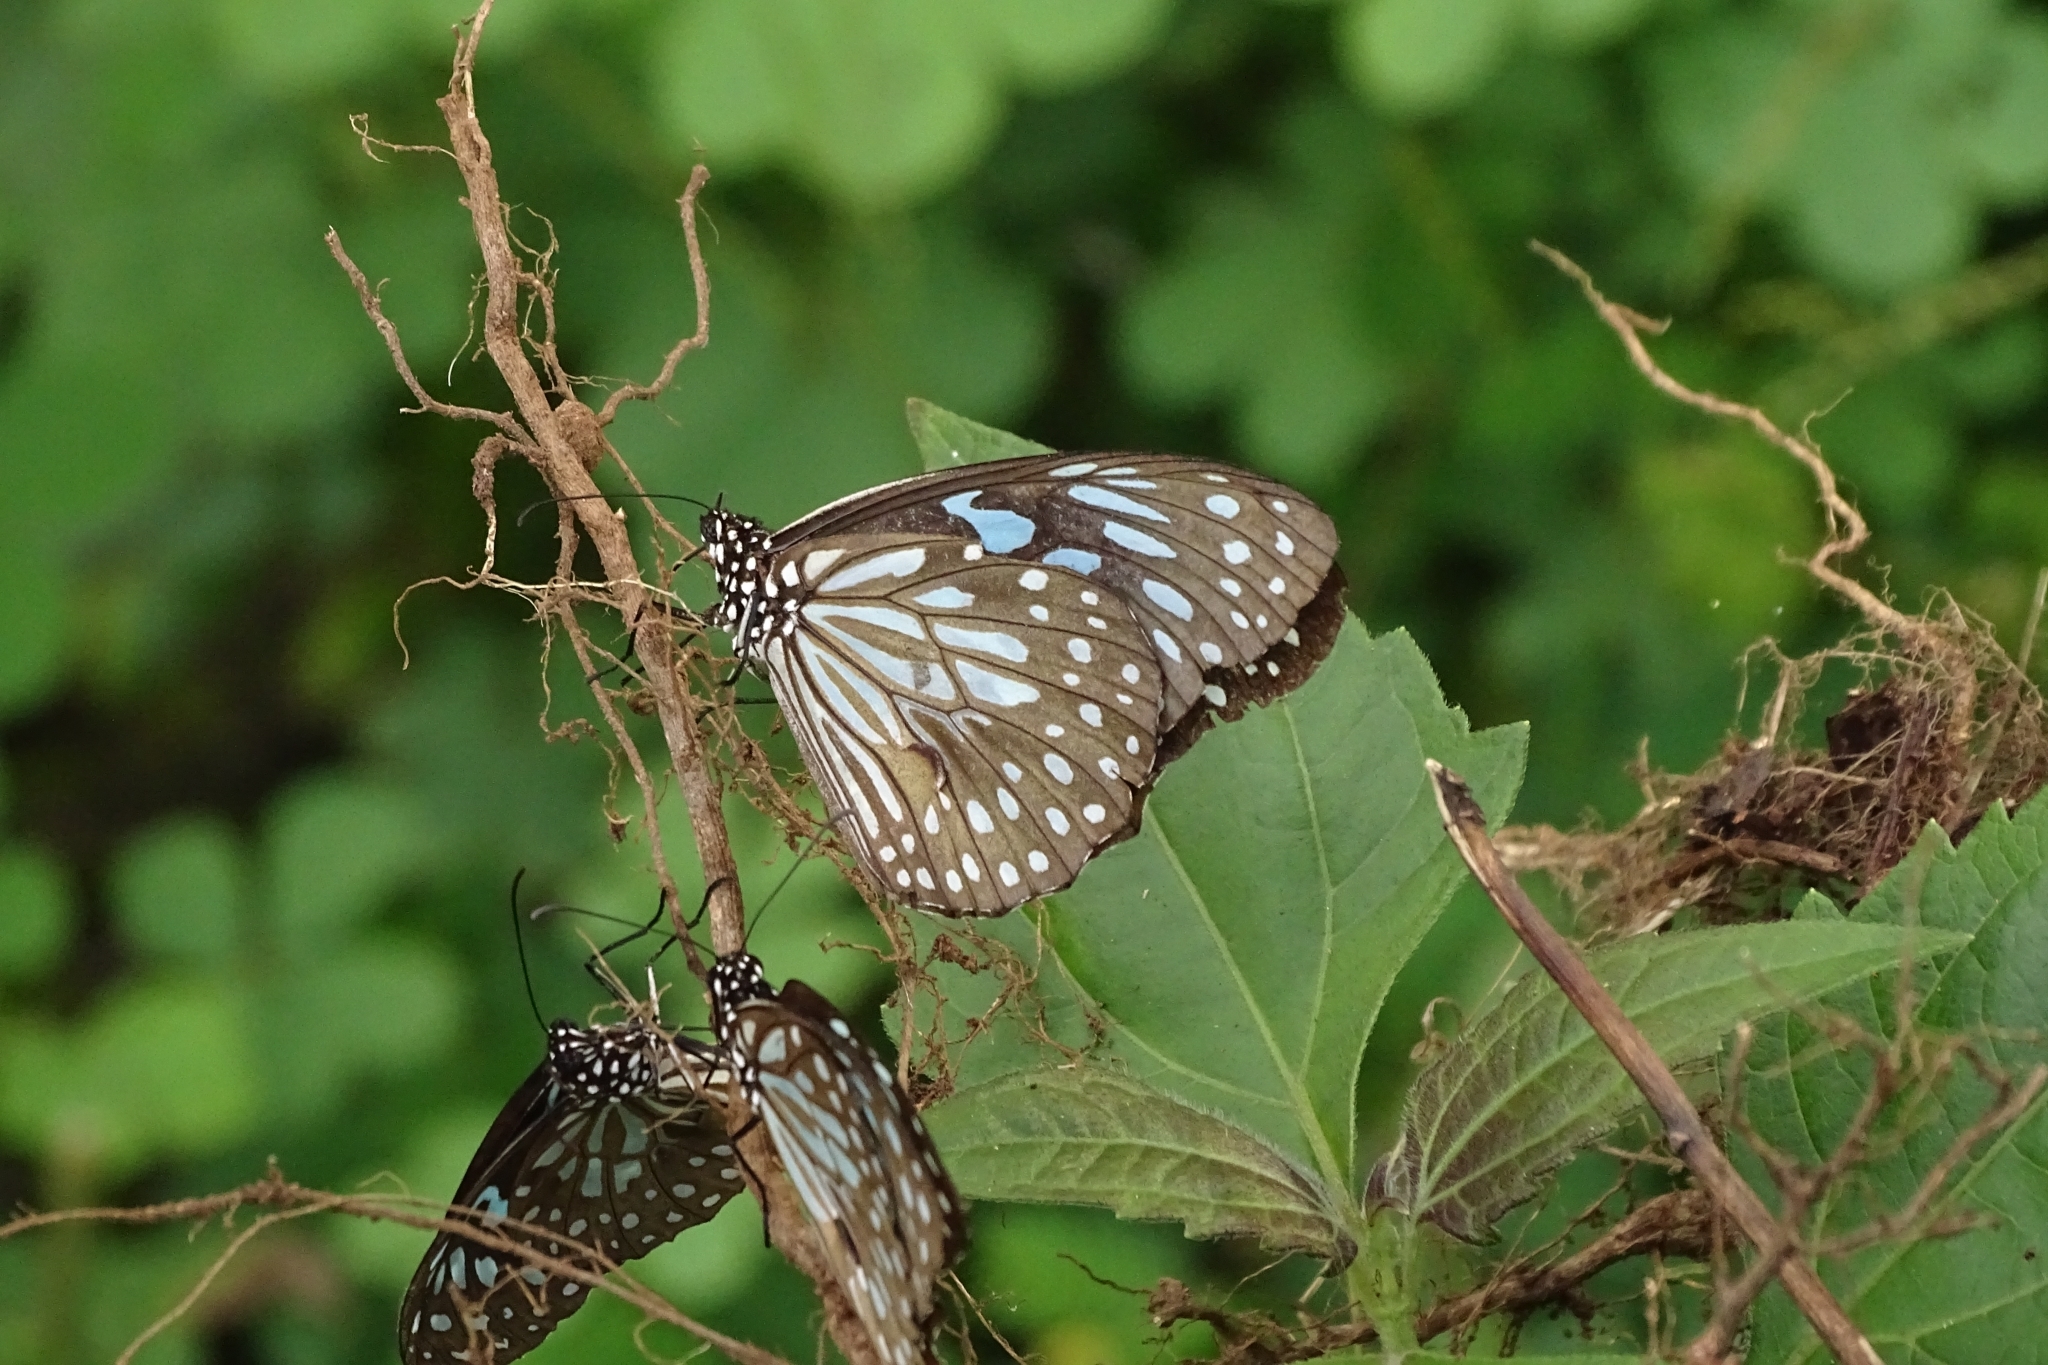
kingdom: Animalia
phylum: Arthropoda
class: Insecta
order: Lepidoptera
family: Nymphalidae
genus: Tirumala
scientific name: Tirumala septentrionis
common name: Dark blue tiger butterfly
